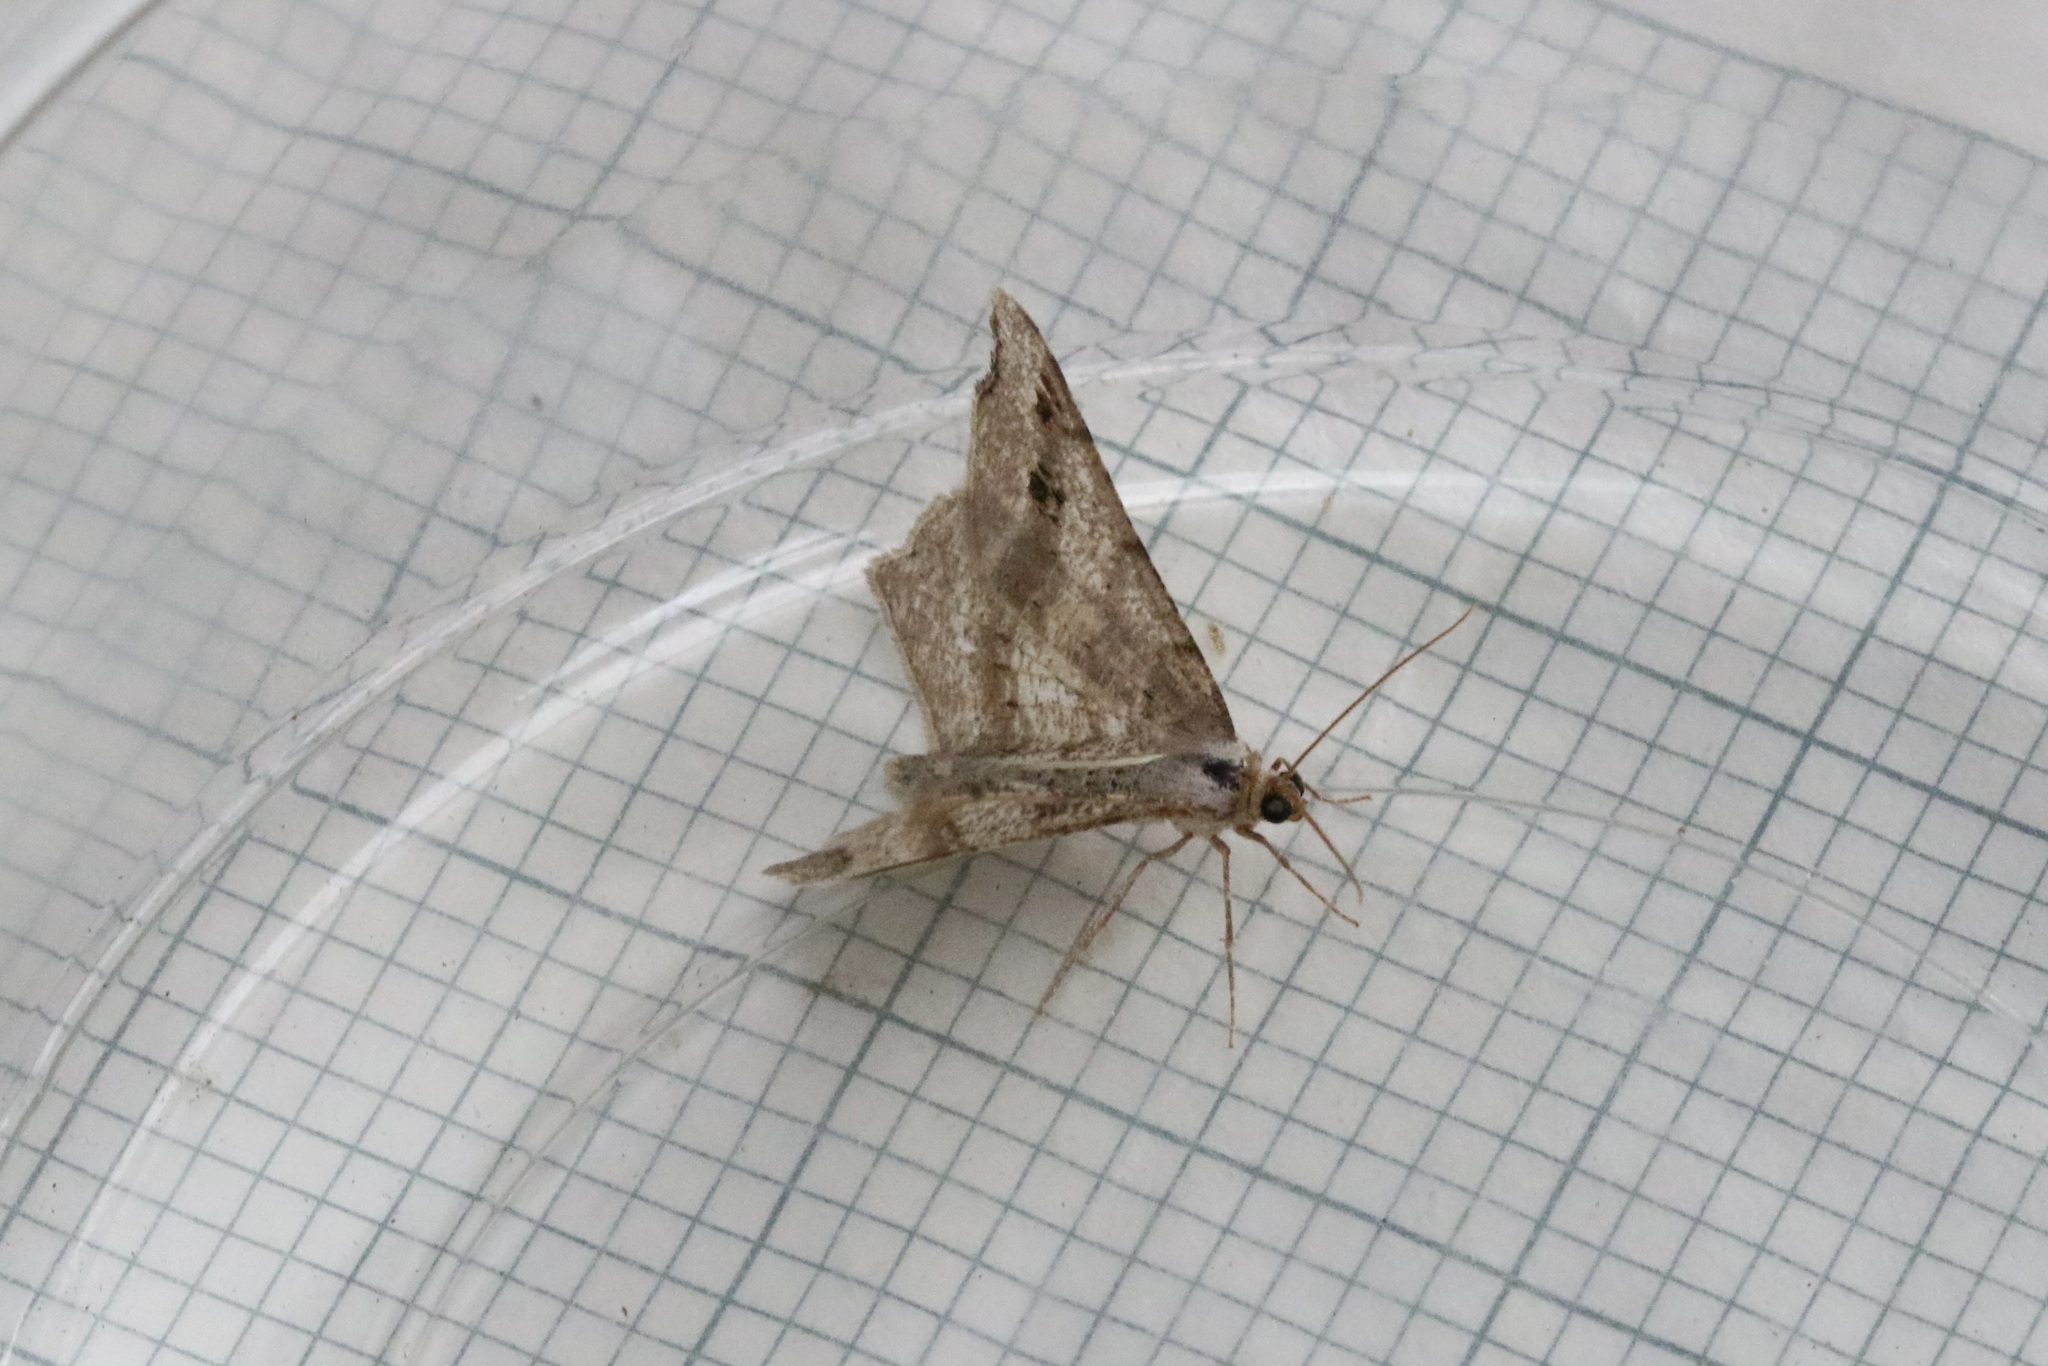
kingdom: Animalia
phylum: Arthropoda
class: Insecta
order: Lepidoptera
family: Geometridae
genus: Macaria
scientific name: Macaria alternata
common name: Sharp-angled peacock
